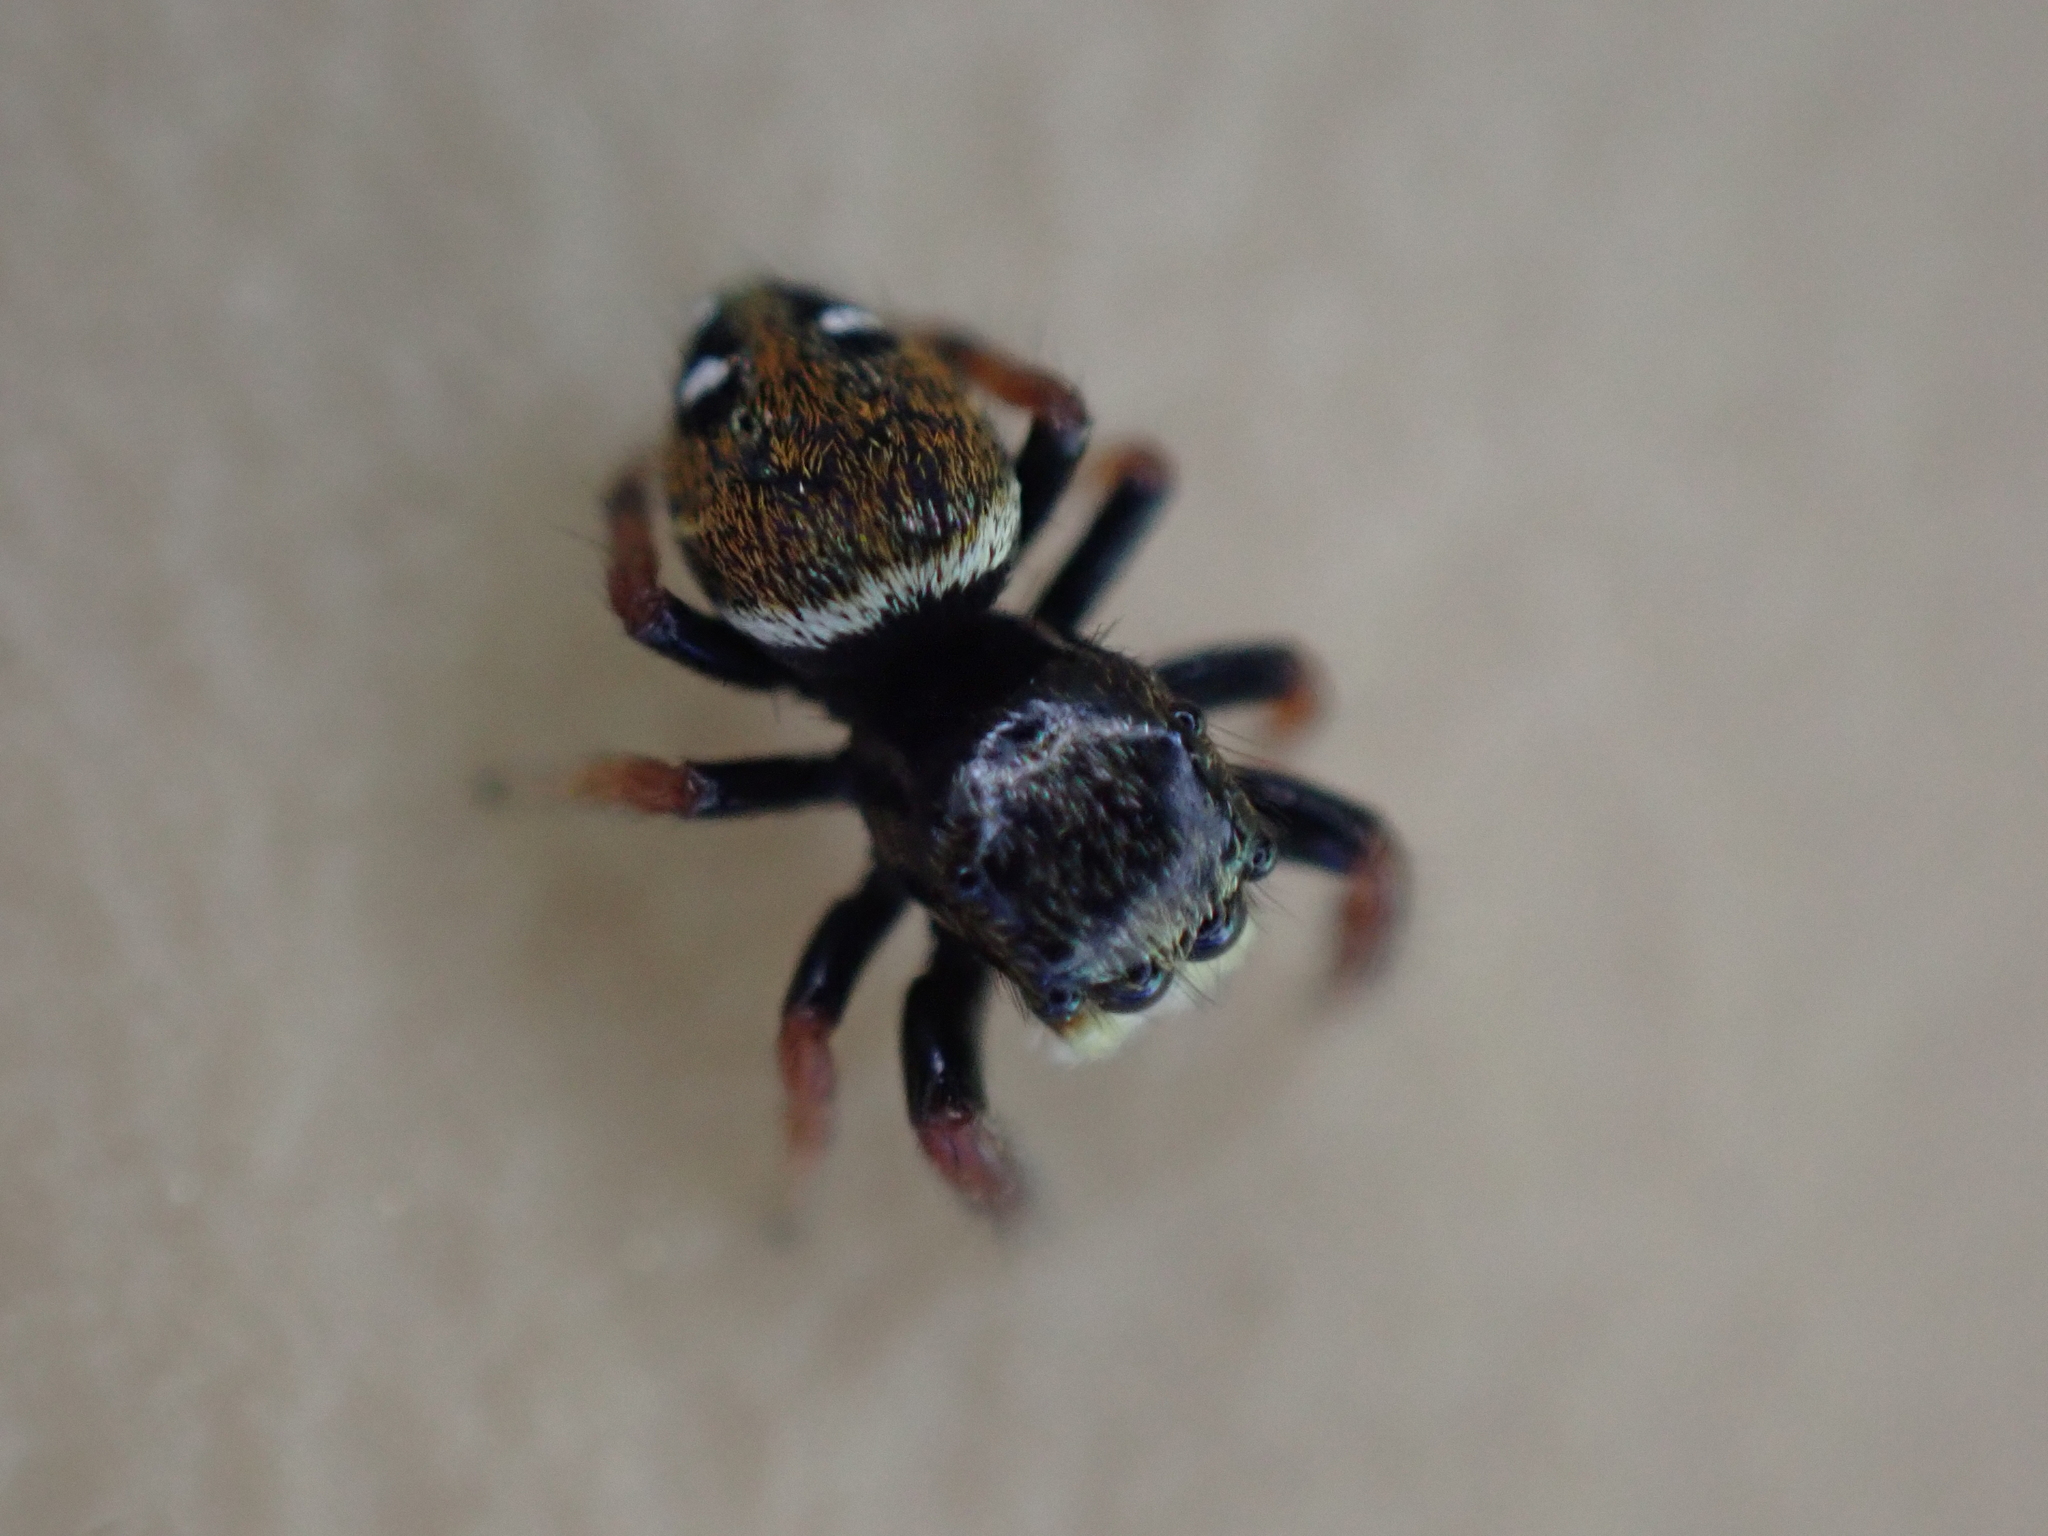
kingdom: Animalia
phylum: Arthropoda
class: Arachnida
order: Araneae
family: Salticidae
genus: Phidippus
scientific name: Phidippus whitmani
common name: Whitman's jumping spider
